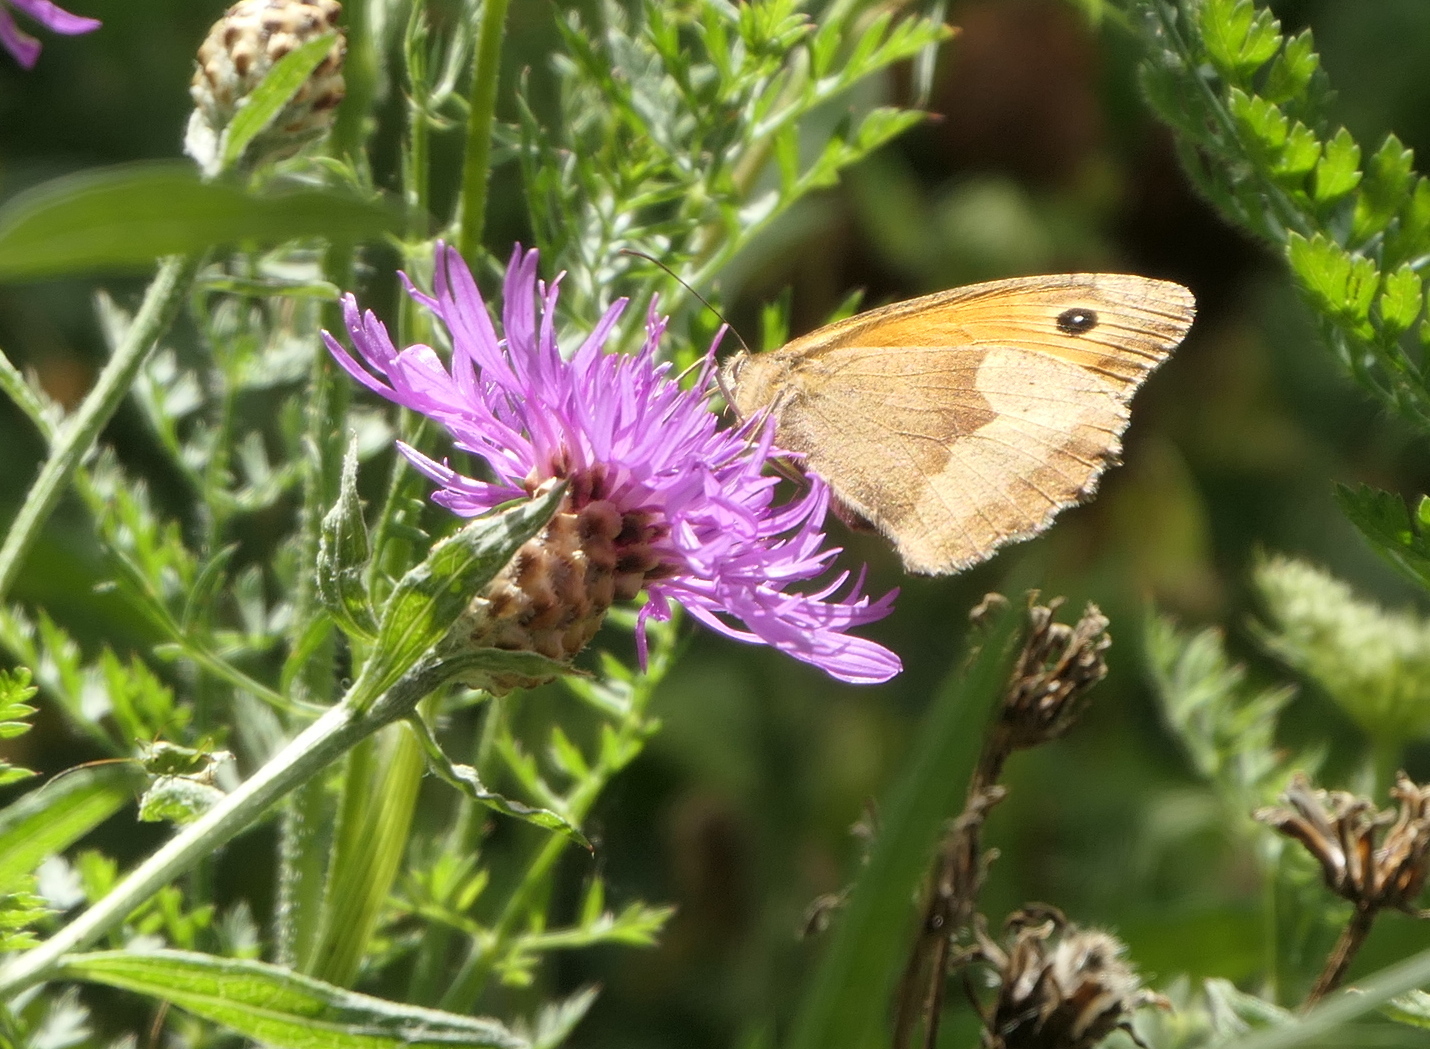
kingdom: Animalia
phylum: Arthropoda
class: Insecta
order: Lepidoptera
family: Nymphalidae
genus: Maniola
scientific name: Maniola jurtina
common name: Meadow brown
